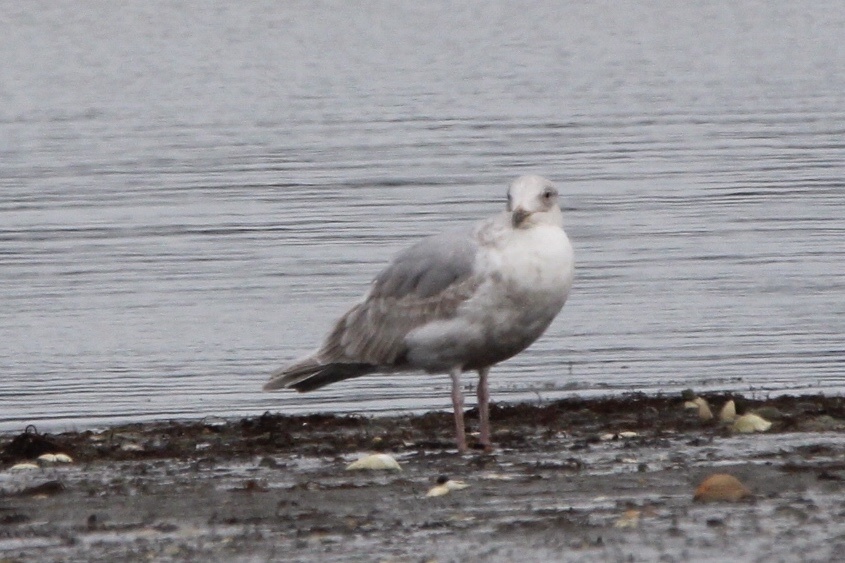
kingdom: Animalia
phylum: Chordata
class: Aves
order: Charadriiformes
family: Laridae
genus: Larus
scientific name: Larus glaucescens
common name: Glaucous-winged gull
